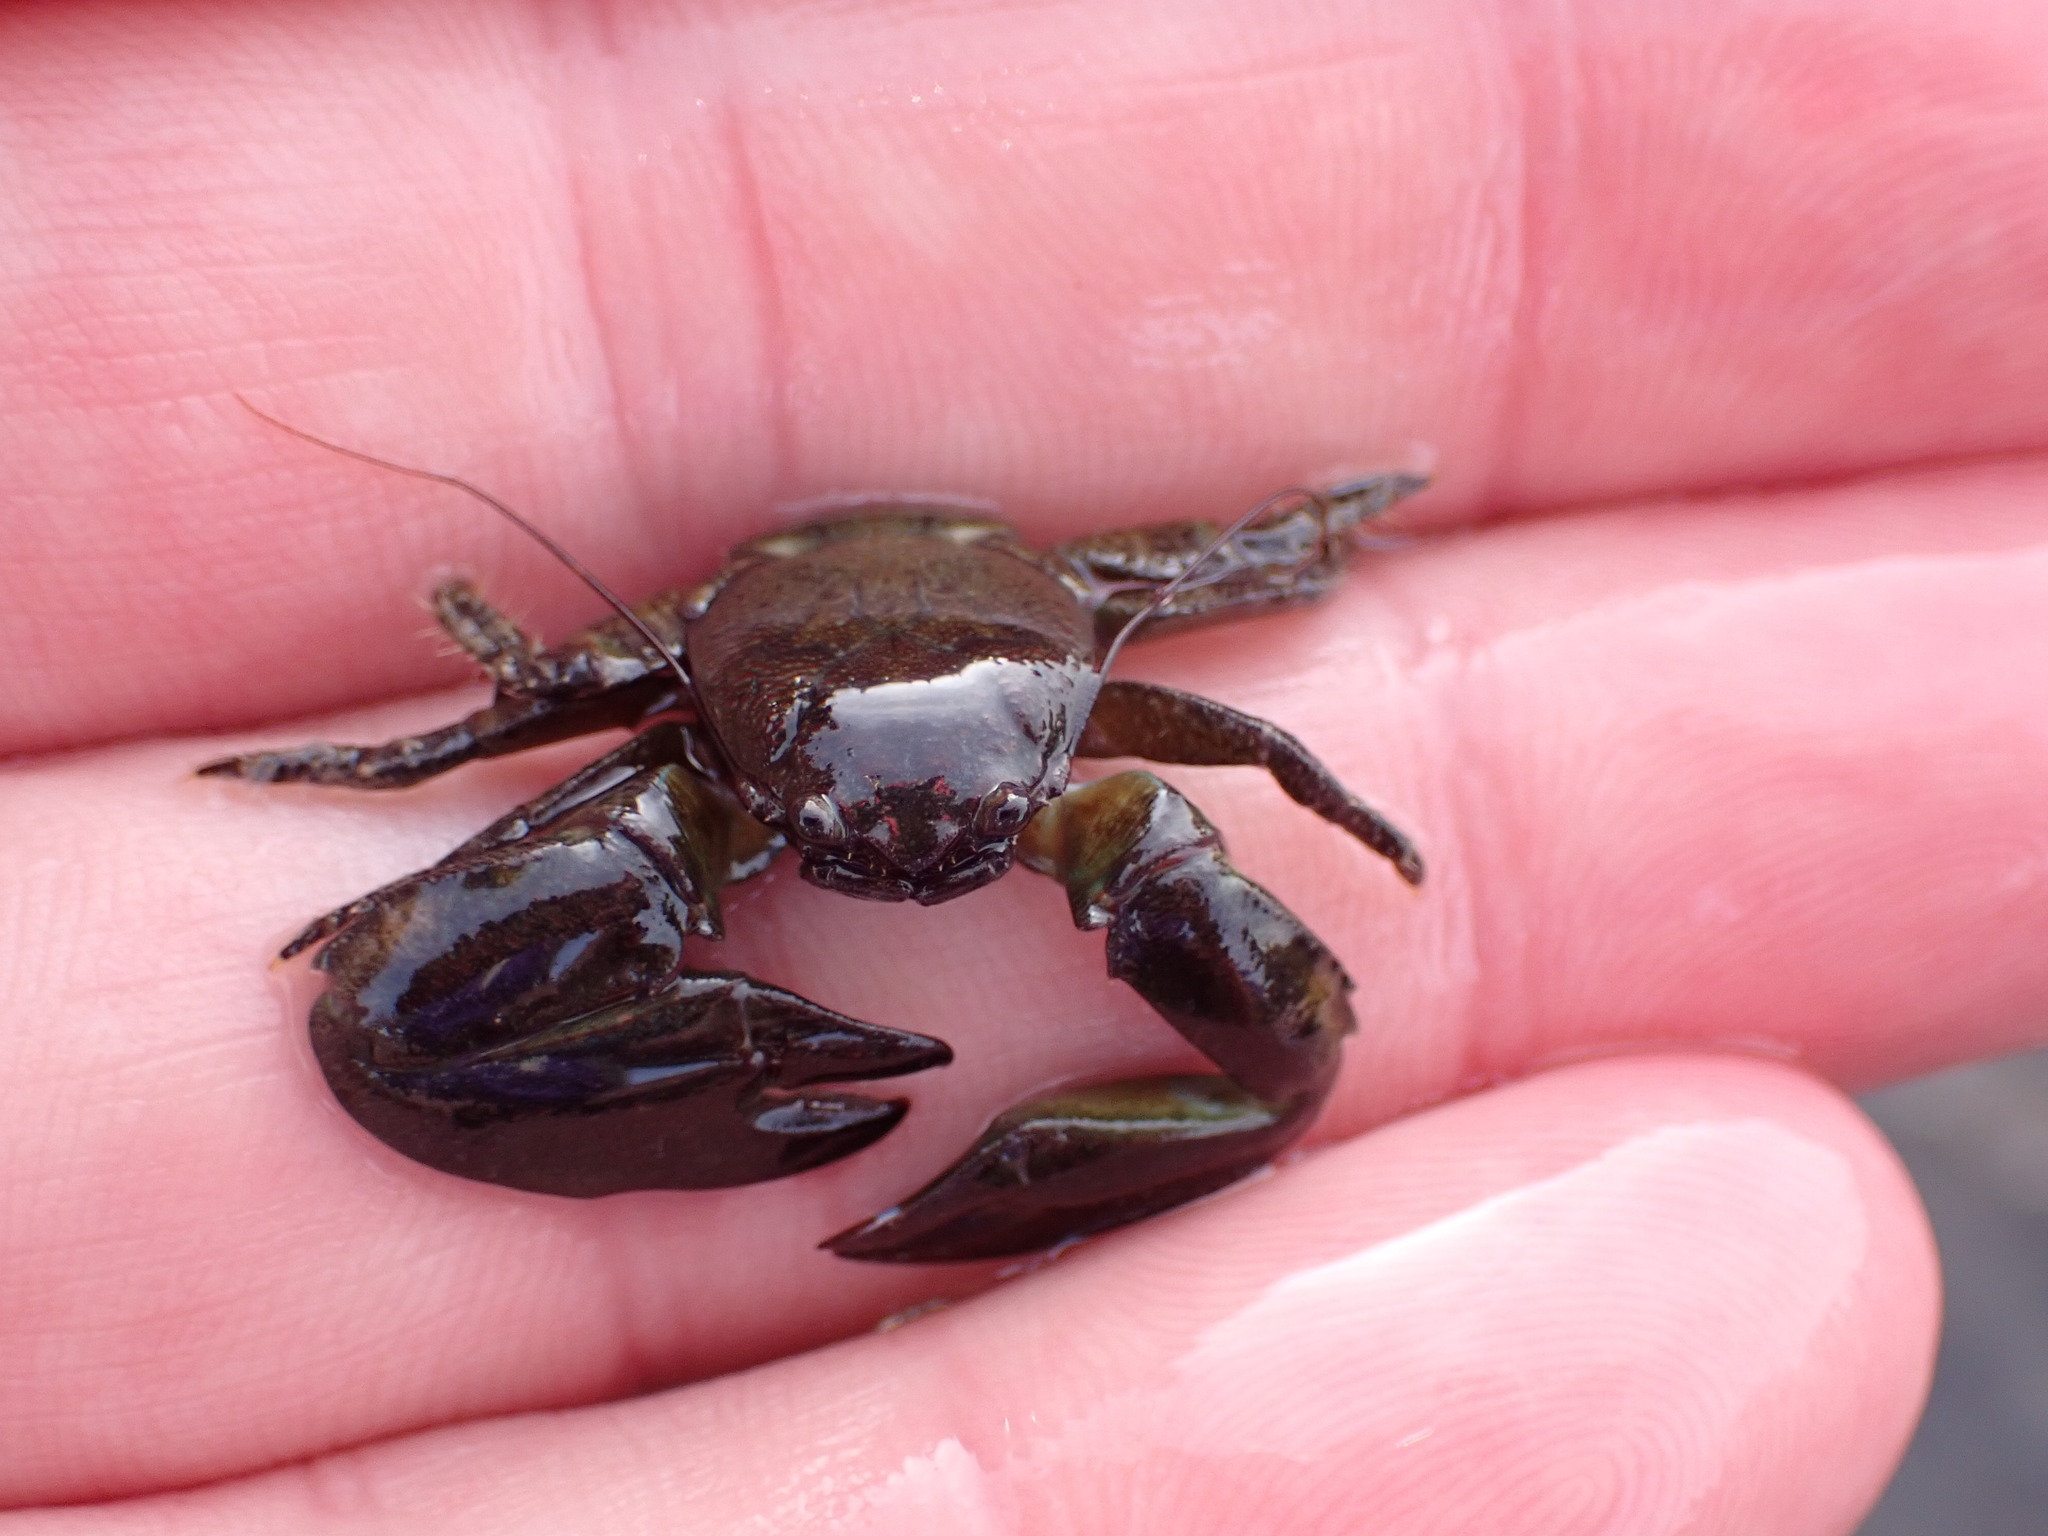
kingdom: Animalia
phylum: Arthropoda
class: Malacostraca
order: Decapoda
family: Porcellanidae
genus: Petrolisthes
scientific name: Petrolisthes elongatus
